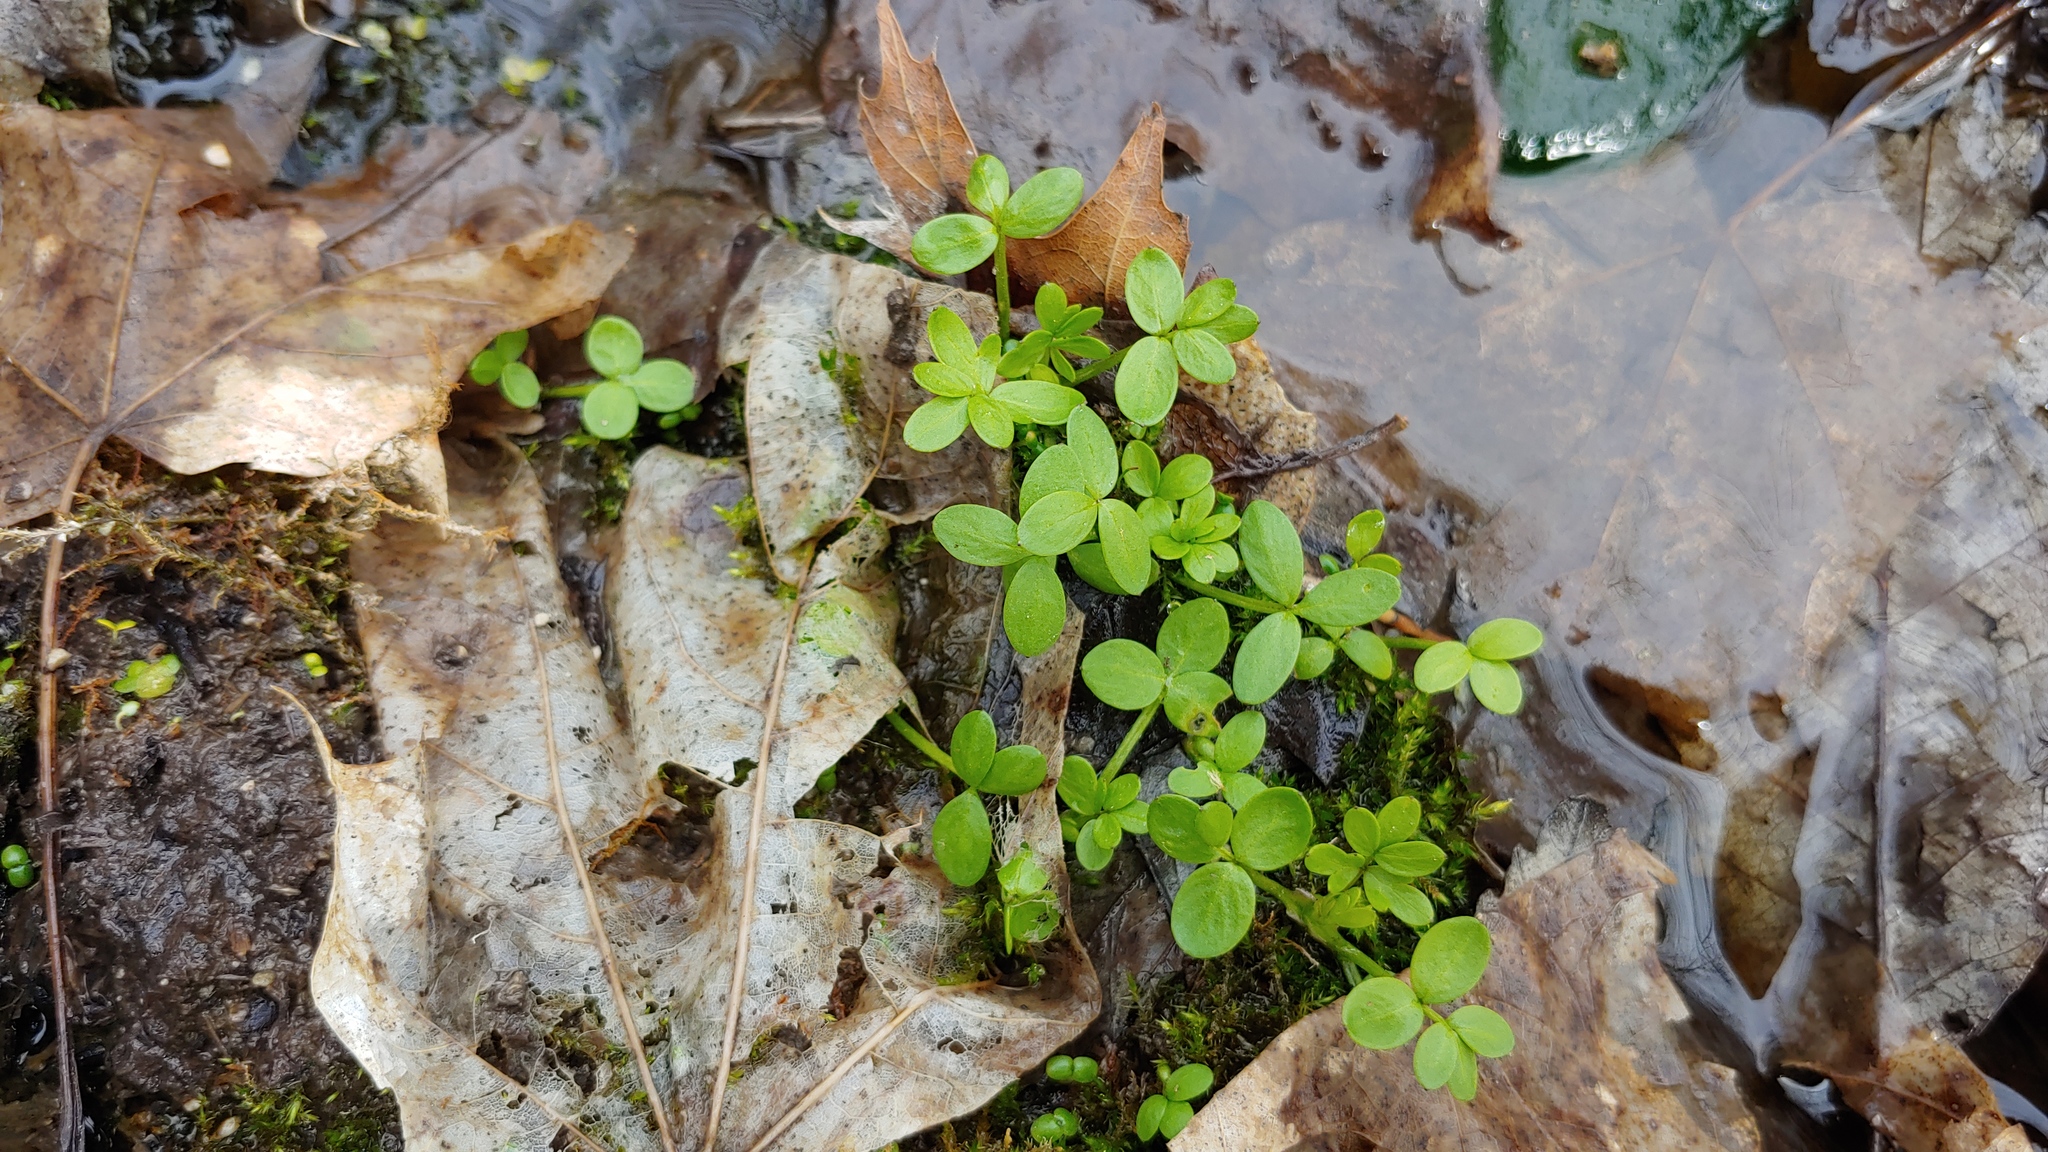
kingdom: Plantae
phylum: Tracheophyta
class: Magnoliopsida
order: Brassicales
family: Limnanthaceae
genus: Floerkea
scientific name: Floerkea proserpinacoides
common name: False mermaid
